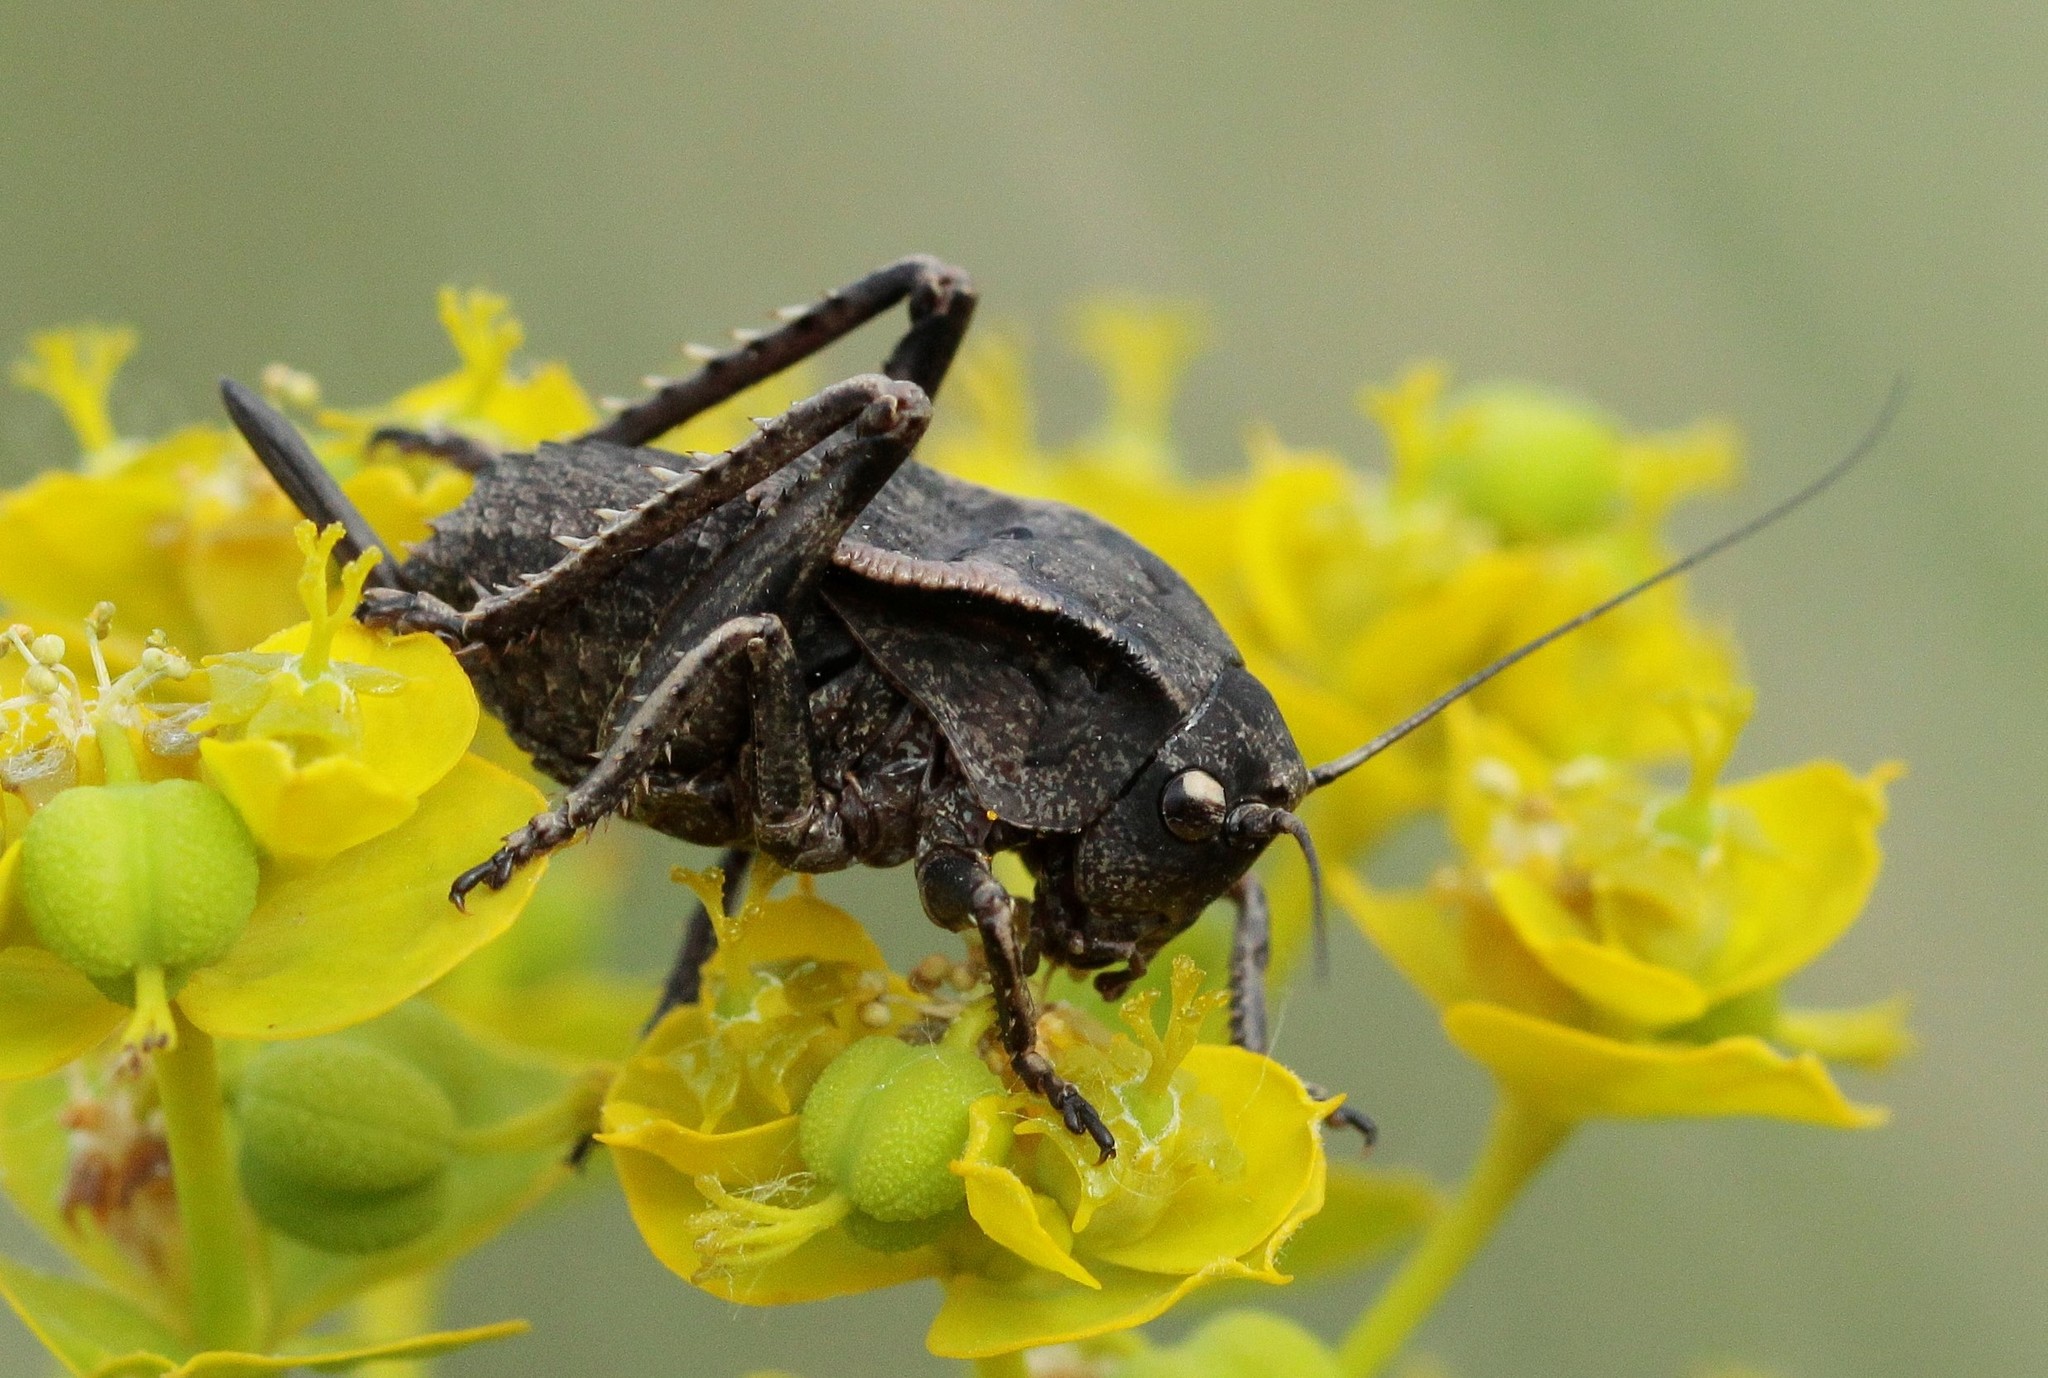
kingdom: Animalia
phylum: Arthropoda
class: Insecta
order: Orthoptera
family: Tettigoniidae
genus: Onconotus
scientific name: Onconotus servillei
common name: Southern barbed-wire bush-cricket
